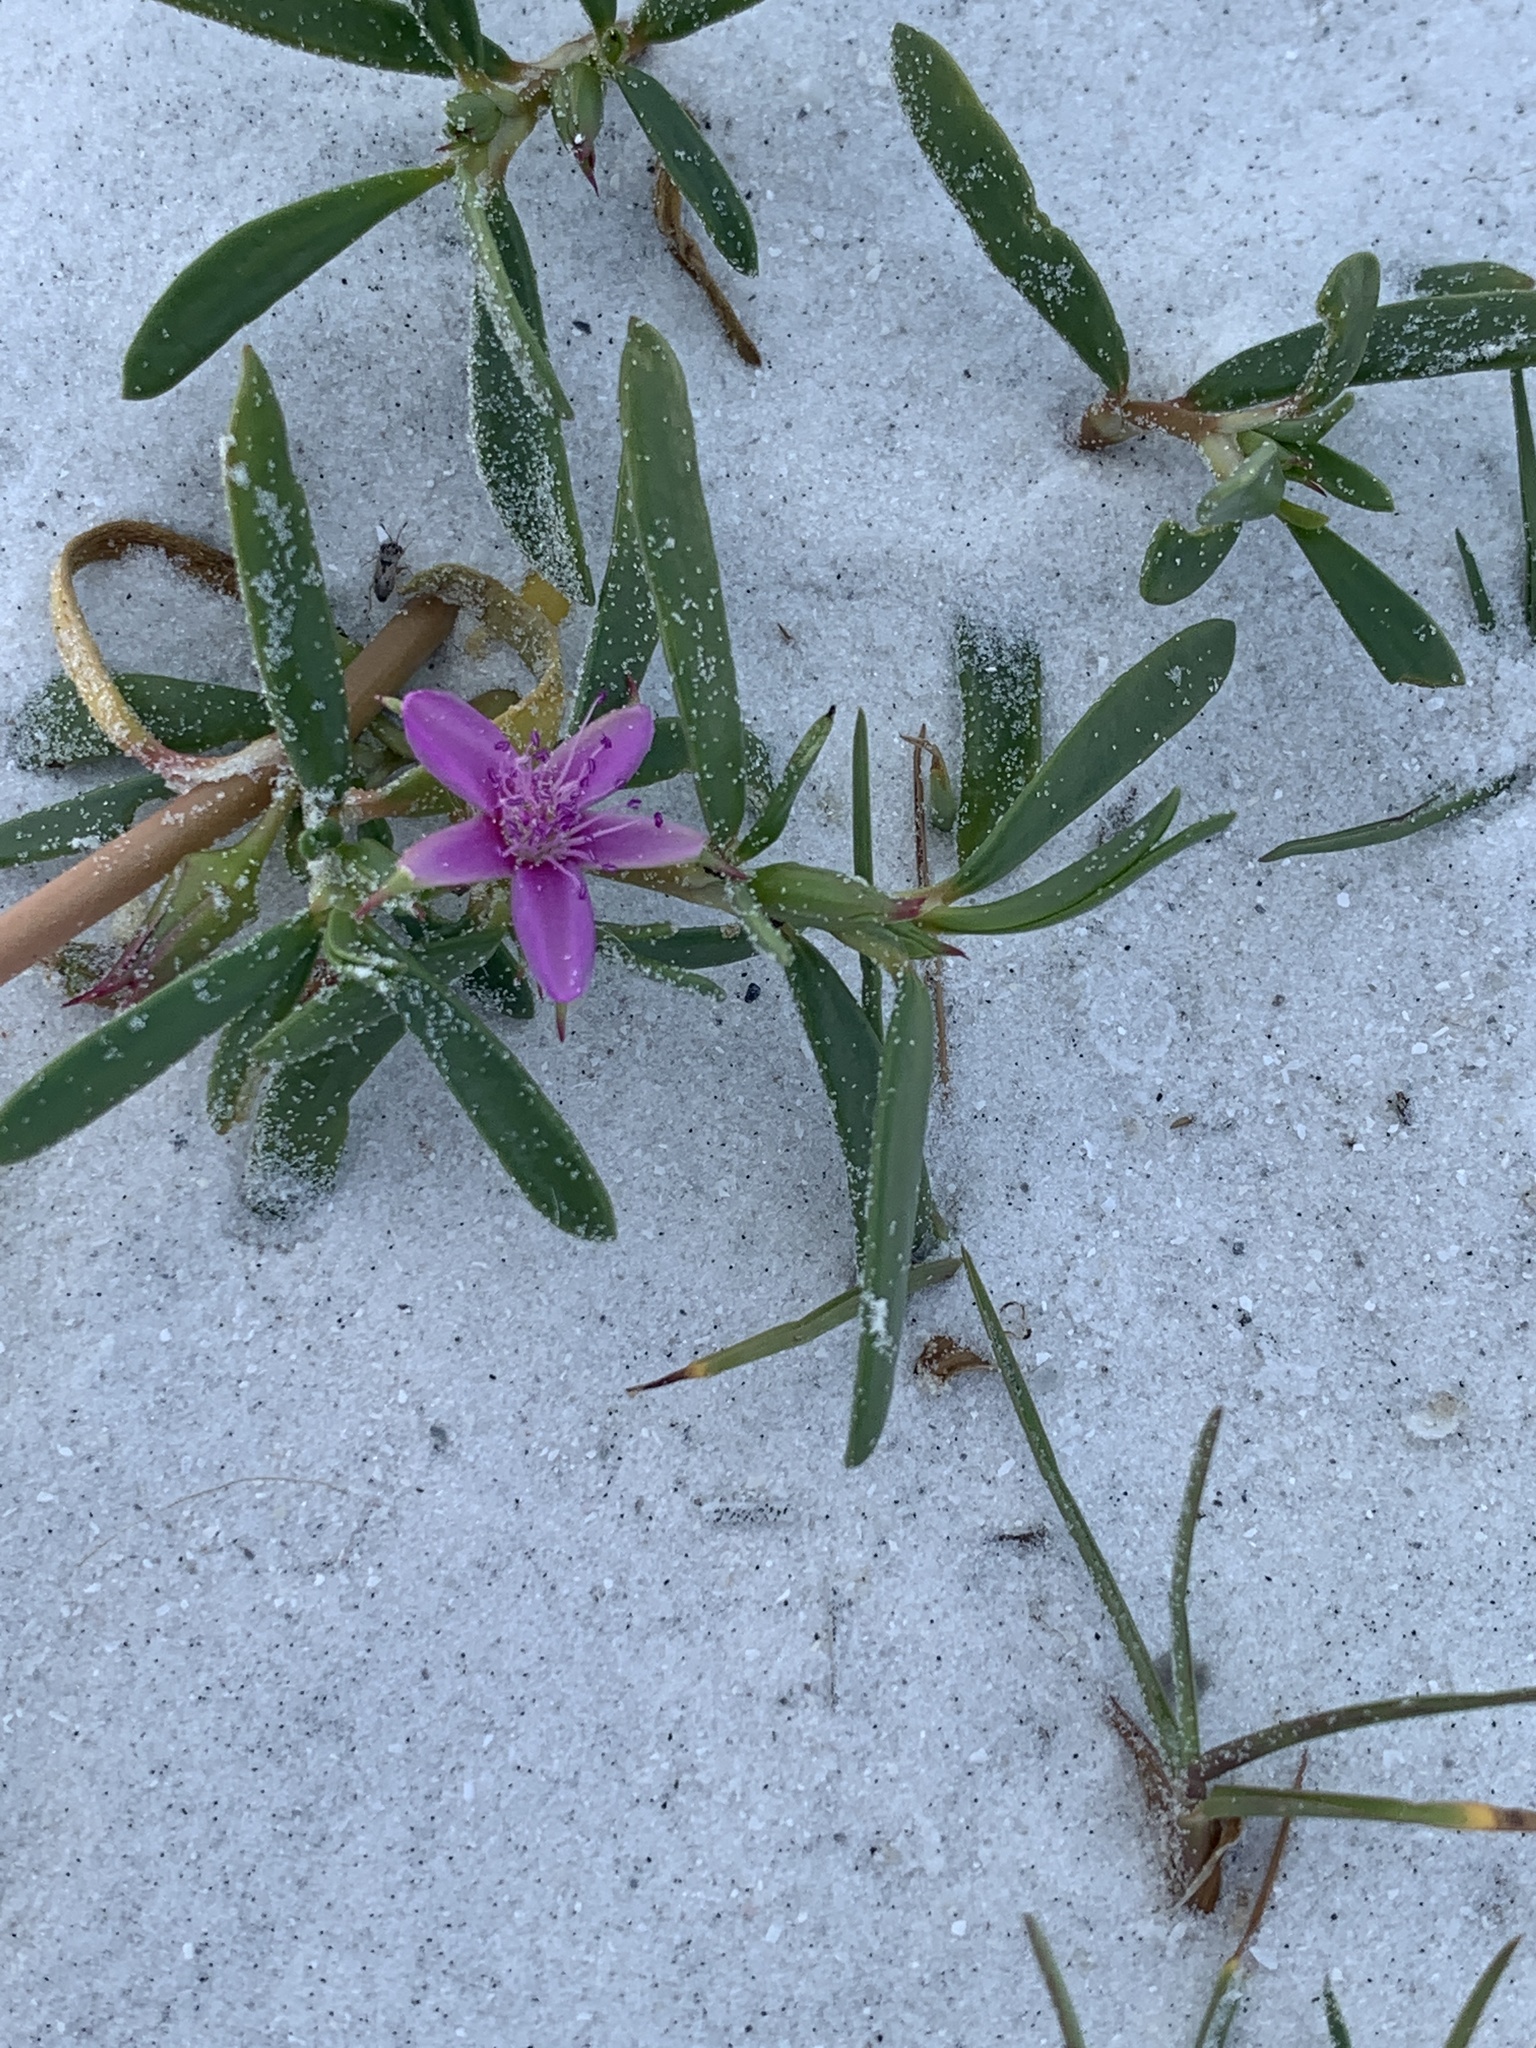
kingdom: Plantae
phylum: Tracheophyta
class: Magnoliopsida
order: Caryophyllales
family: Aizoaceae
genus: Sesuvium
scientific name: Sesuvium portulacastrum
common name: Sea-purslane
